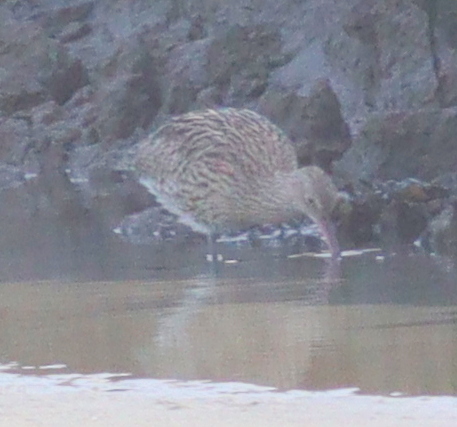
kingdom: Animalia
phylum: Chordata
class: Aves
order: Charadriiformes
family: Scolopacidae
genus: Numenius
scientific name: Numenius arquata
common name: Eurasian curlew
